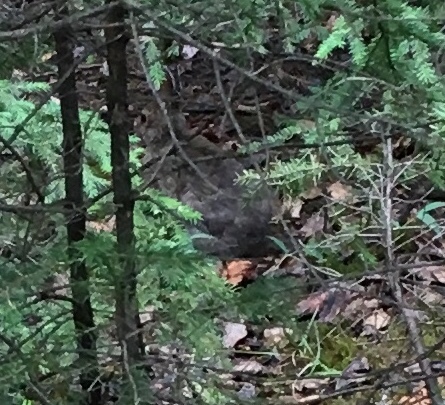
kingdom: Animalia
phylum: Chordata
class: Mammalia
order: Lagomorpha
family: Leporidae
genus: Lepus
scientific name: Lepus americanus
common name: Snowshoe hare
